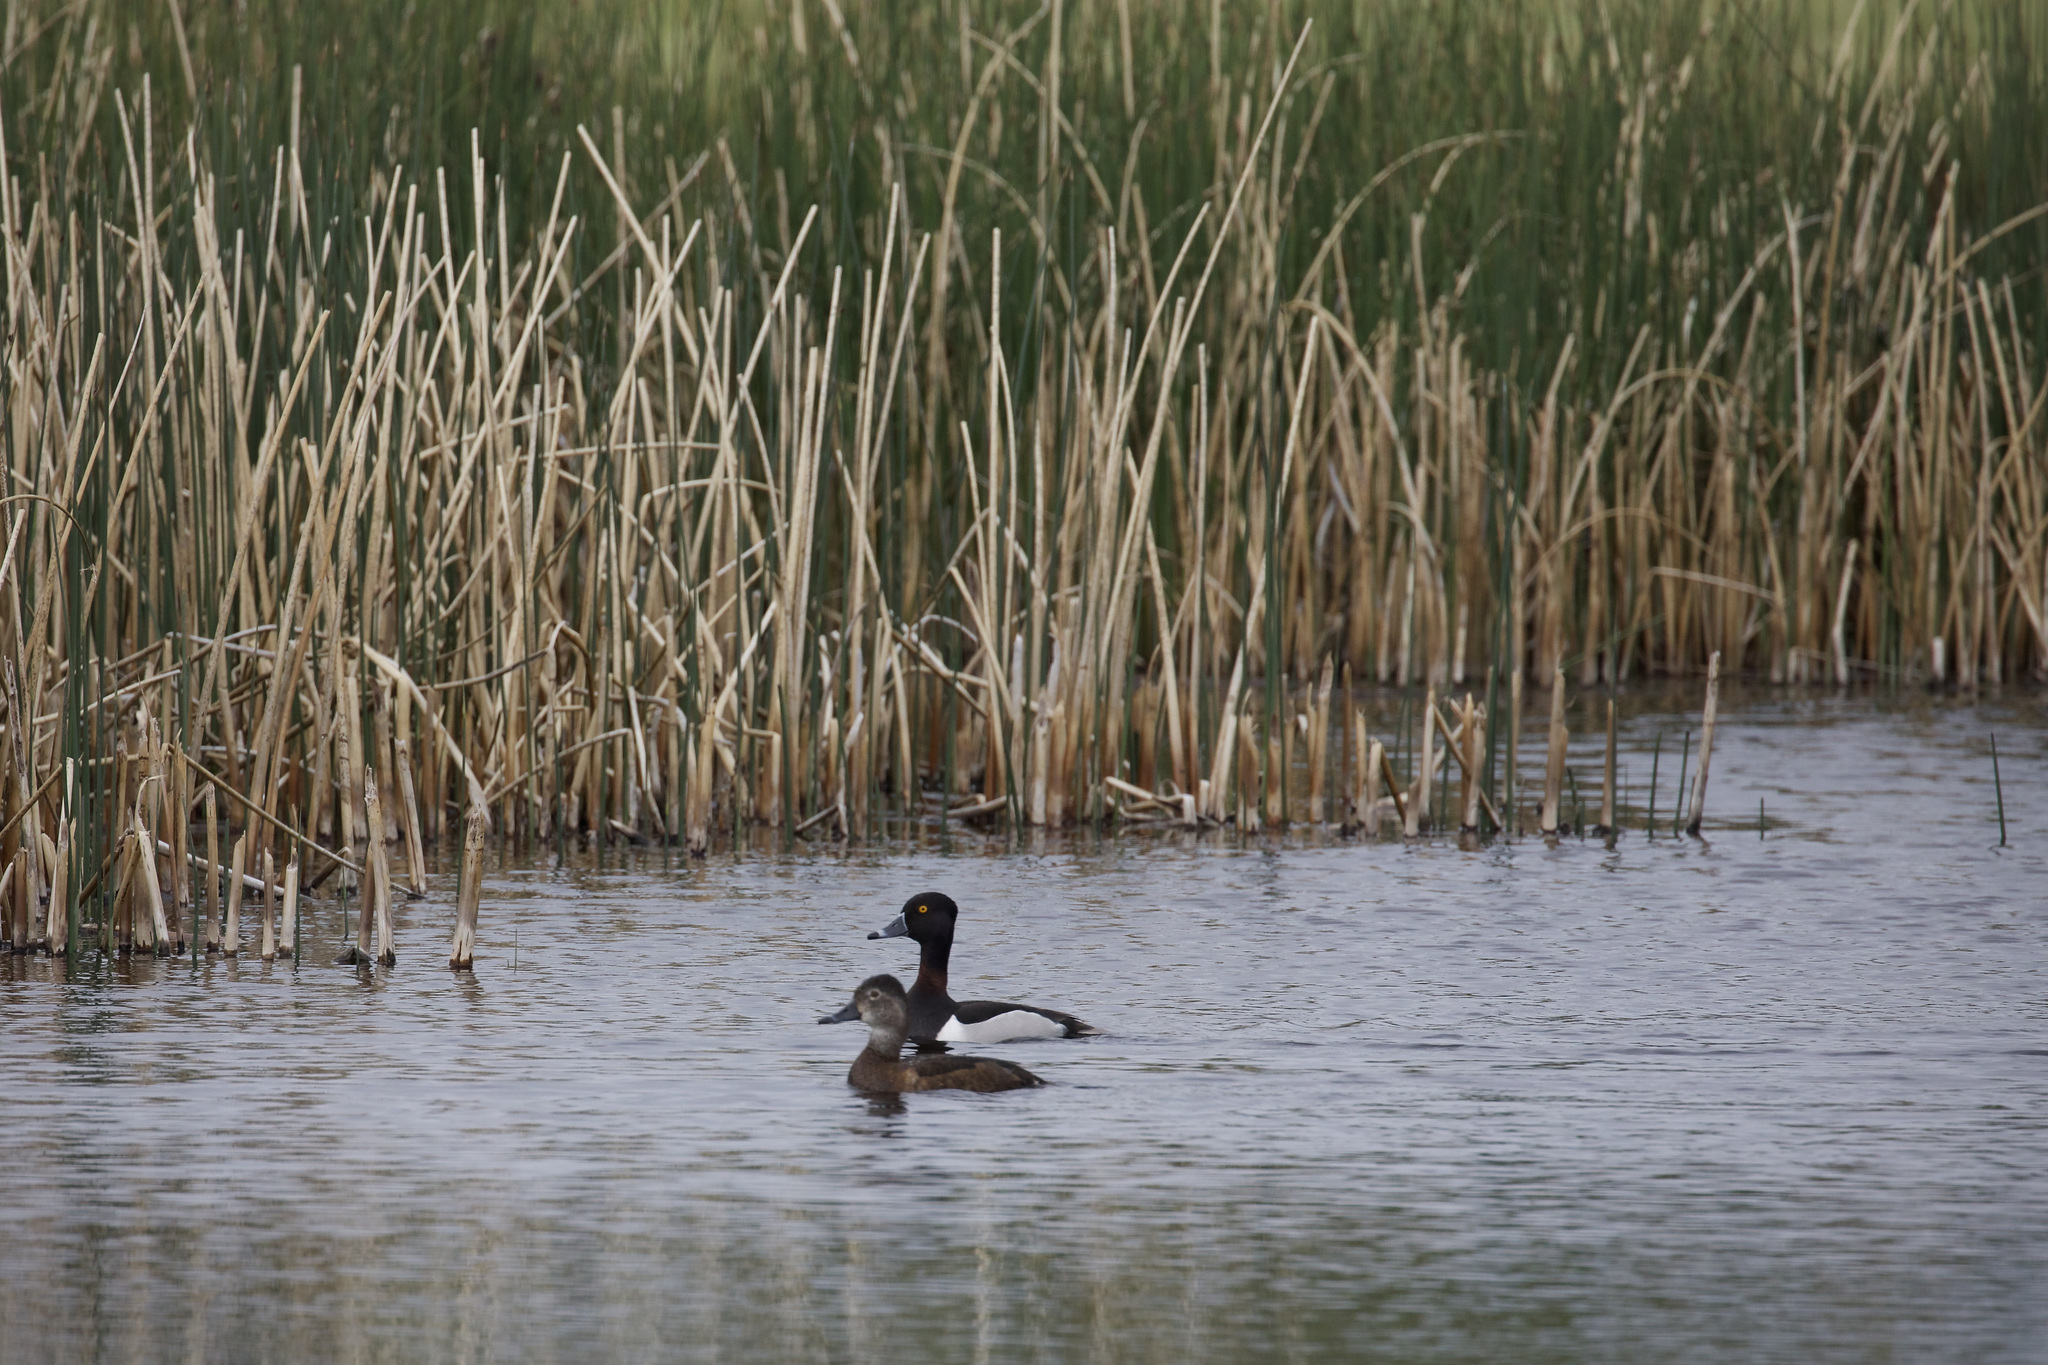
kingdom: Animalia
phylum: Chordata
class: Aves
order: Anseriformes
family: Anatidae
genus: Aythya
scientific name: Aythya collaris
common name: Ring-necked duck
